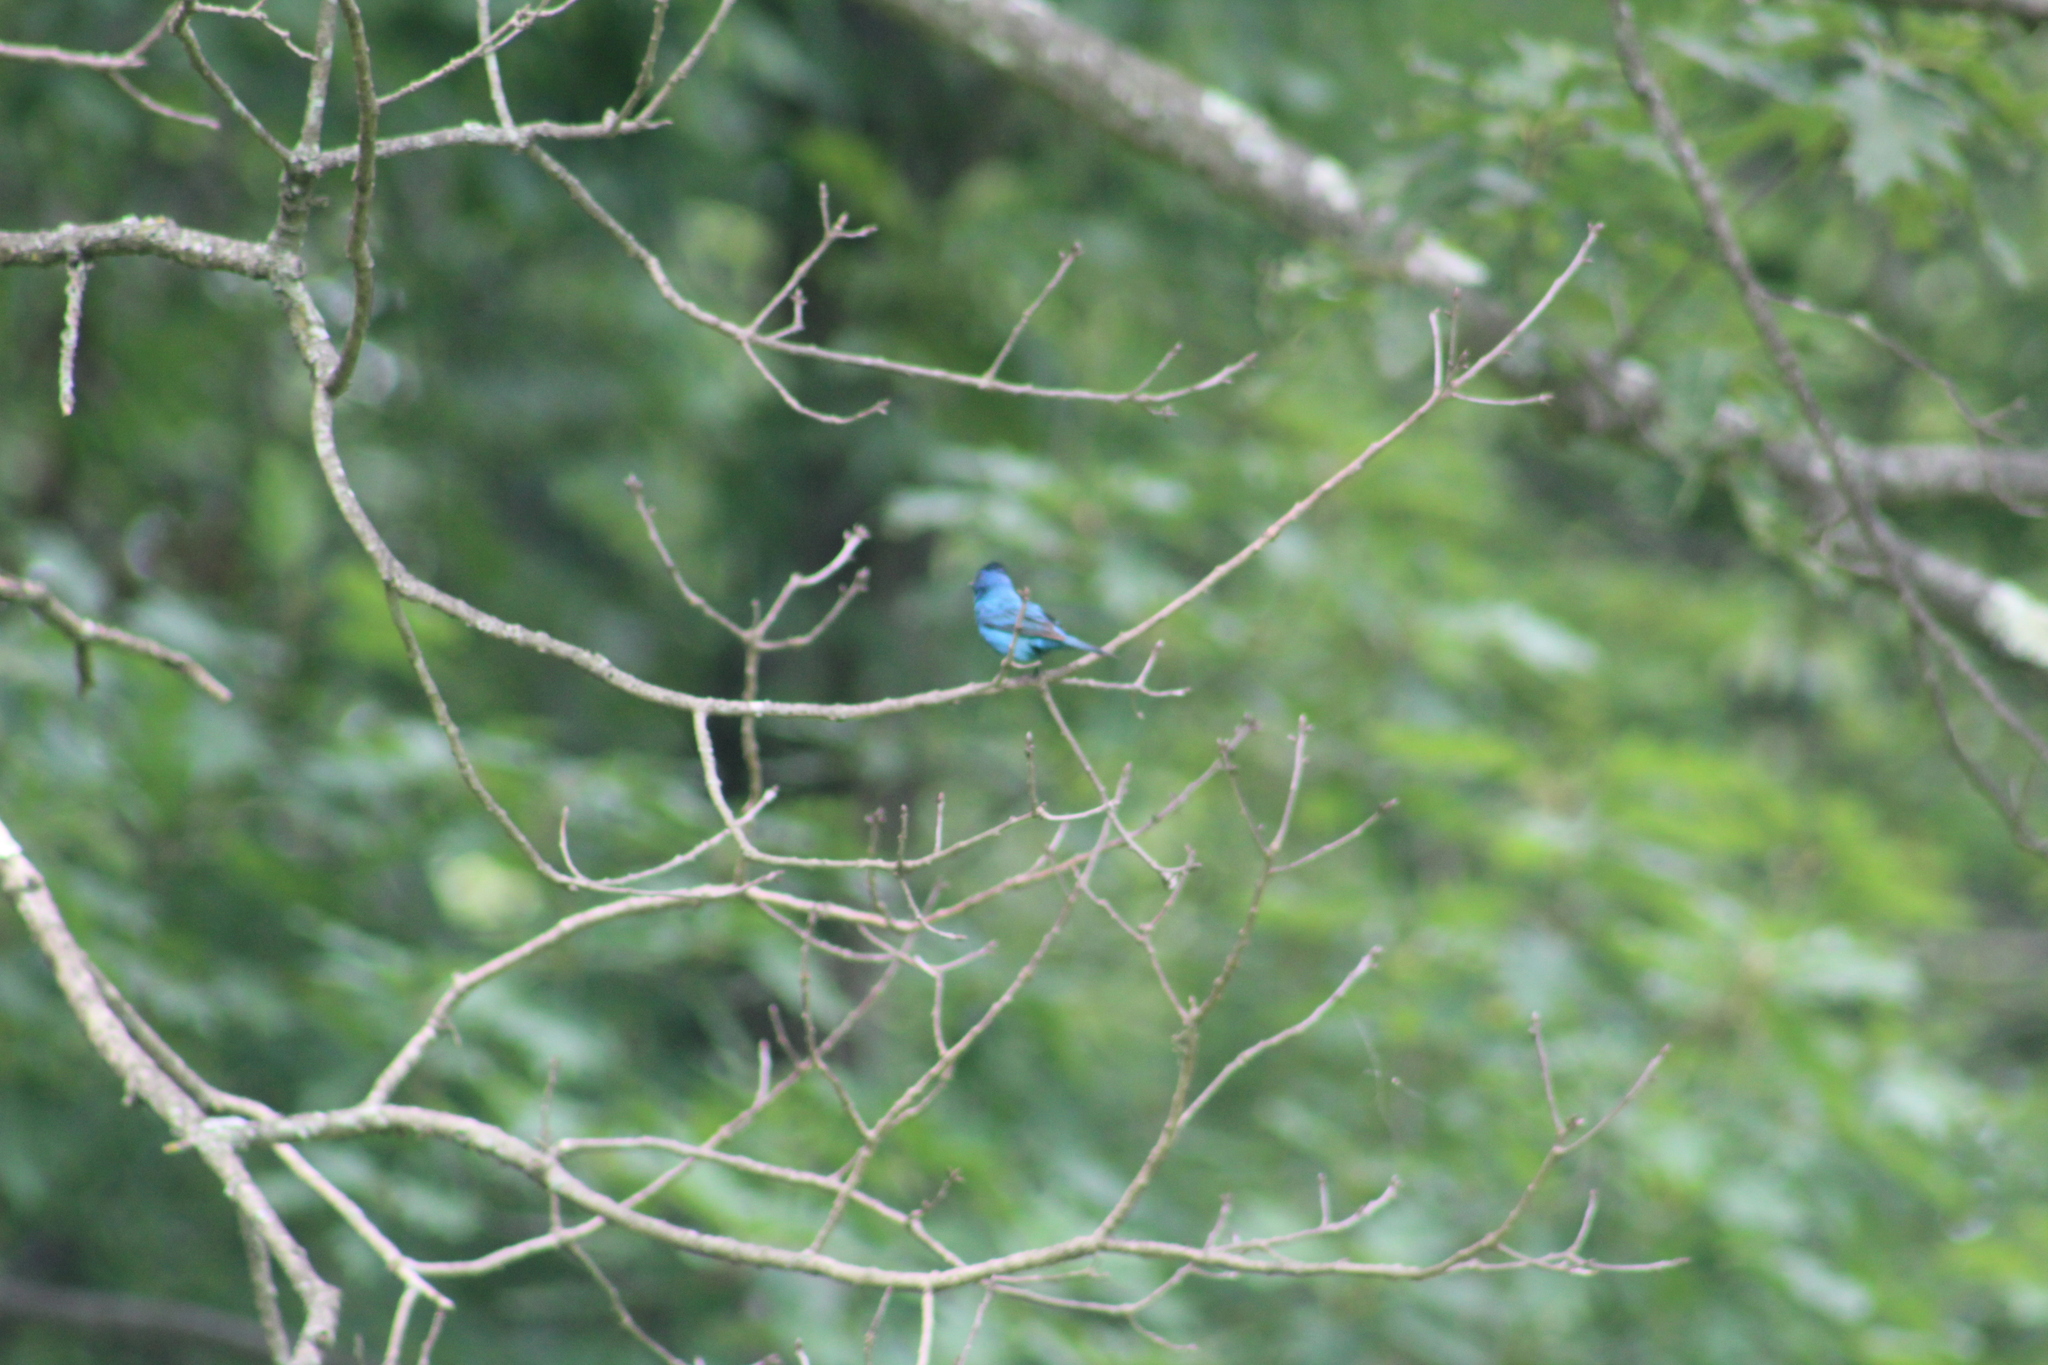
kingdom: Animalia
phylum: Chordata
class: Aves
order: Passeriformes
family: Cardinalidae
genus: Passerina
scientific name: Passerina cyanea
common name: Indigo bunting
